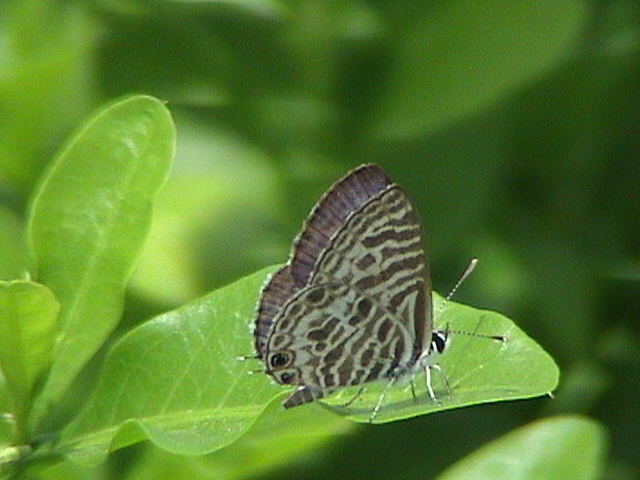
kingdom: Animalia
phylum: Arthropoda
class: Insecta
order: Lepidoptera
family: Lycaenidae
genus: Leptotes
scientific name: Leptotes plinius
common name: Zebra blue
